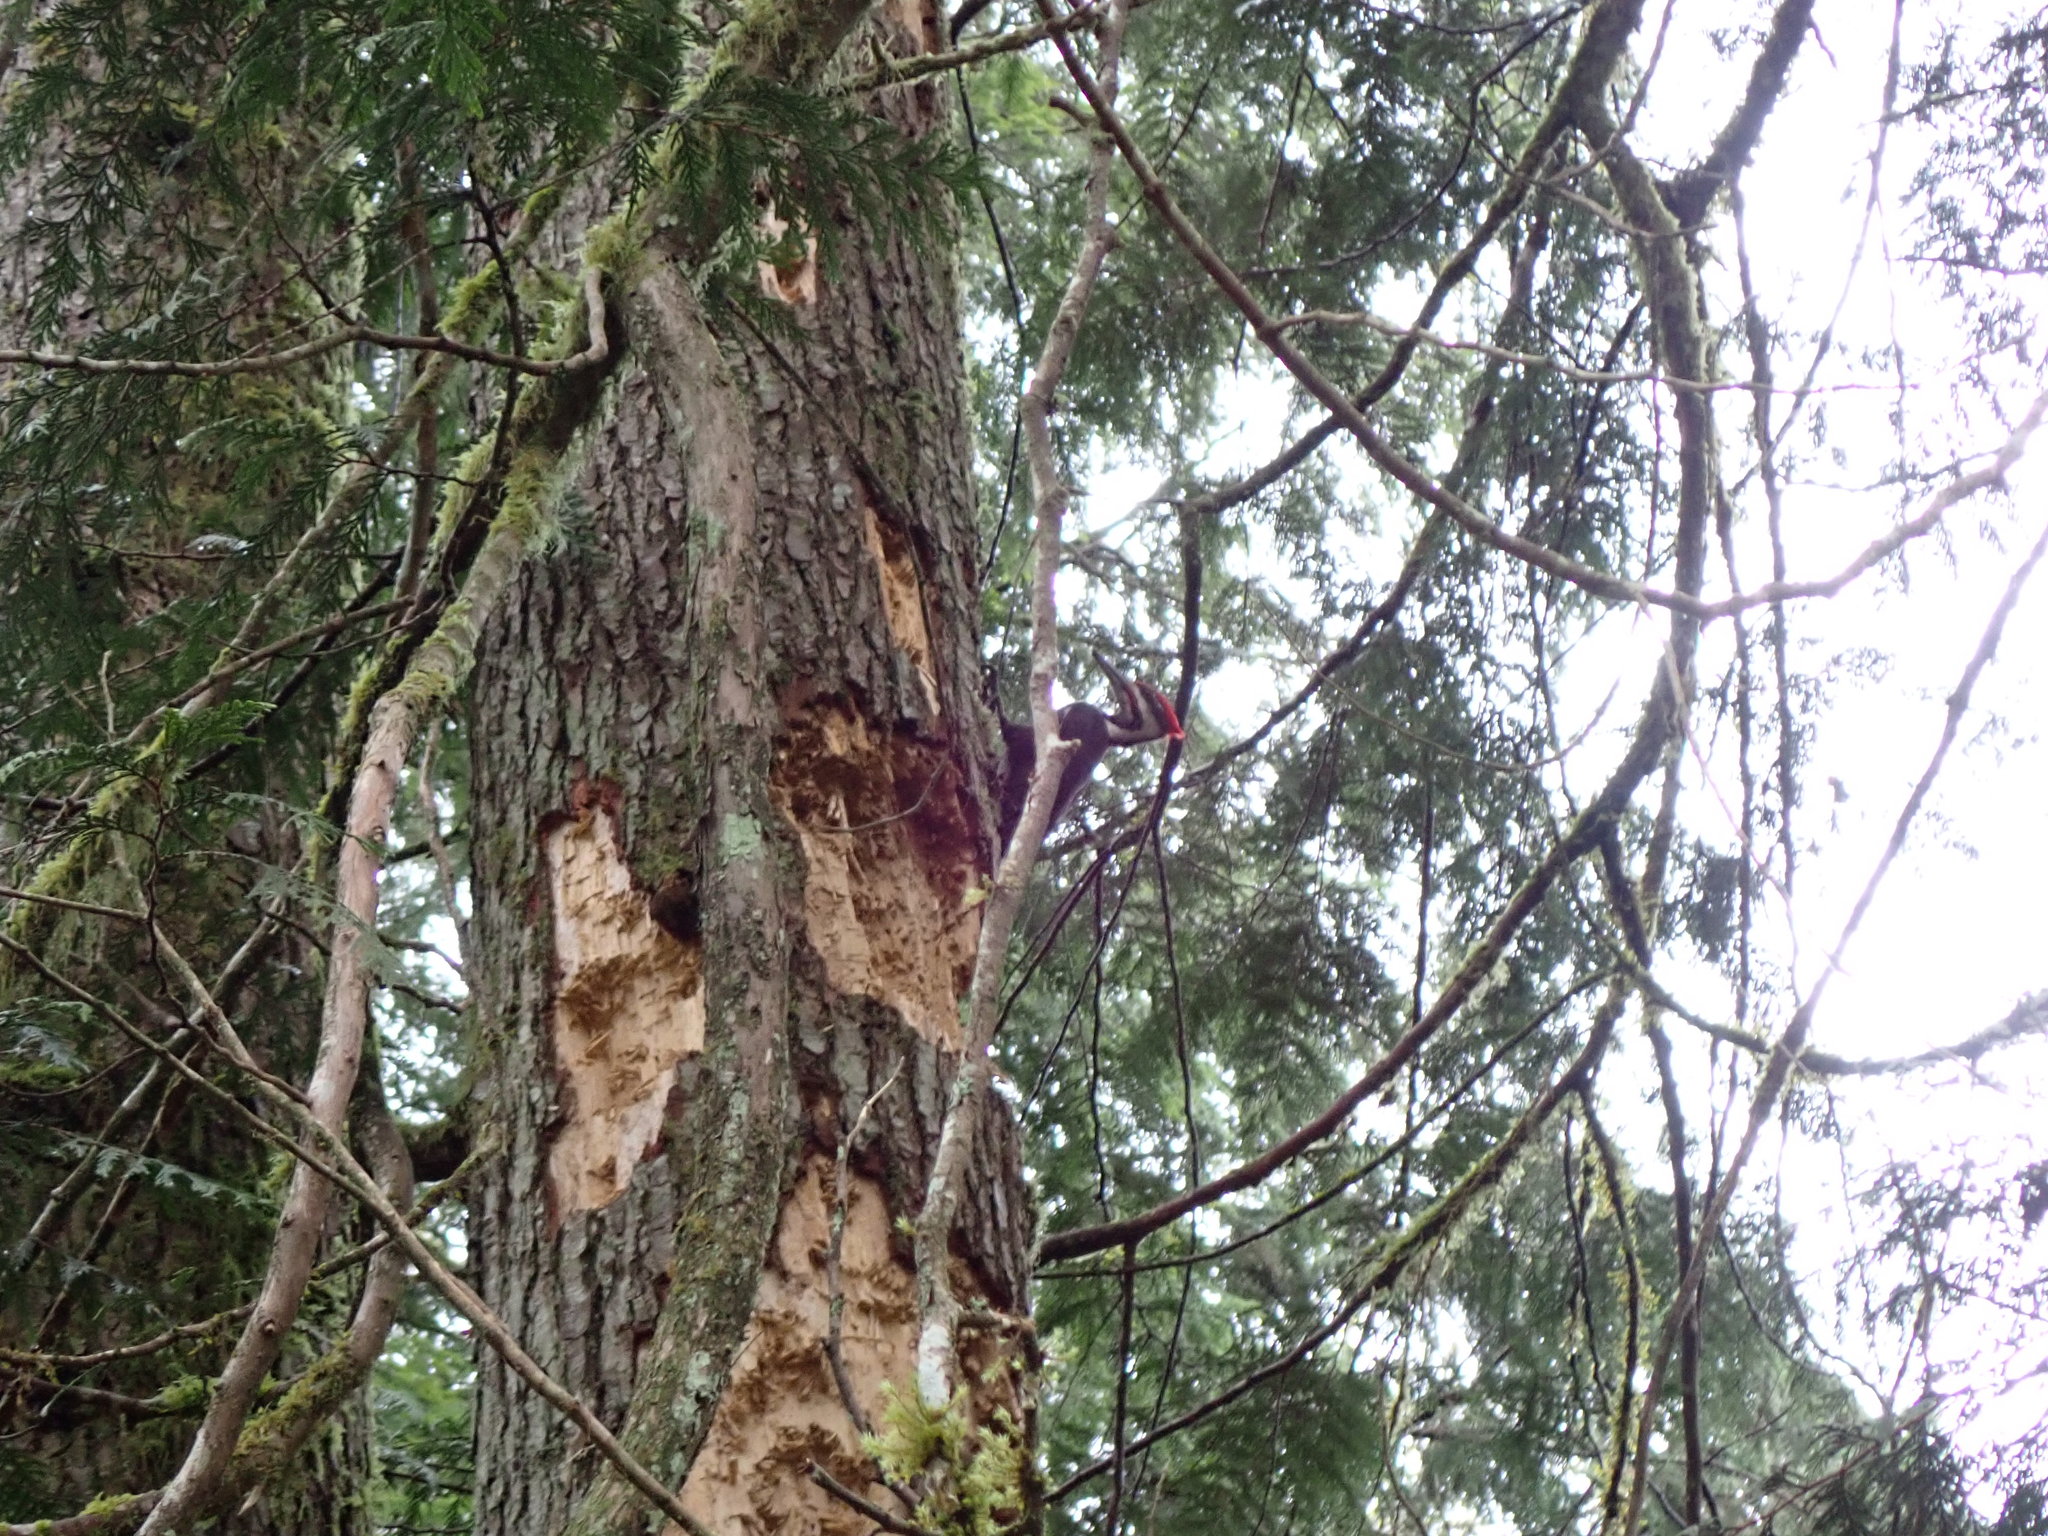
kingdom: Animalia
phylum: Chordata
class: Aves
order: Piciformes
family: Picidae
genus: Dryocopus
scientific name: Dryocopus pileatus
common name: Pileated woodpecker
